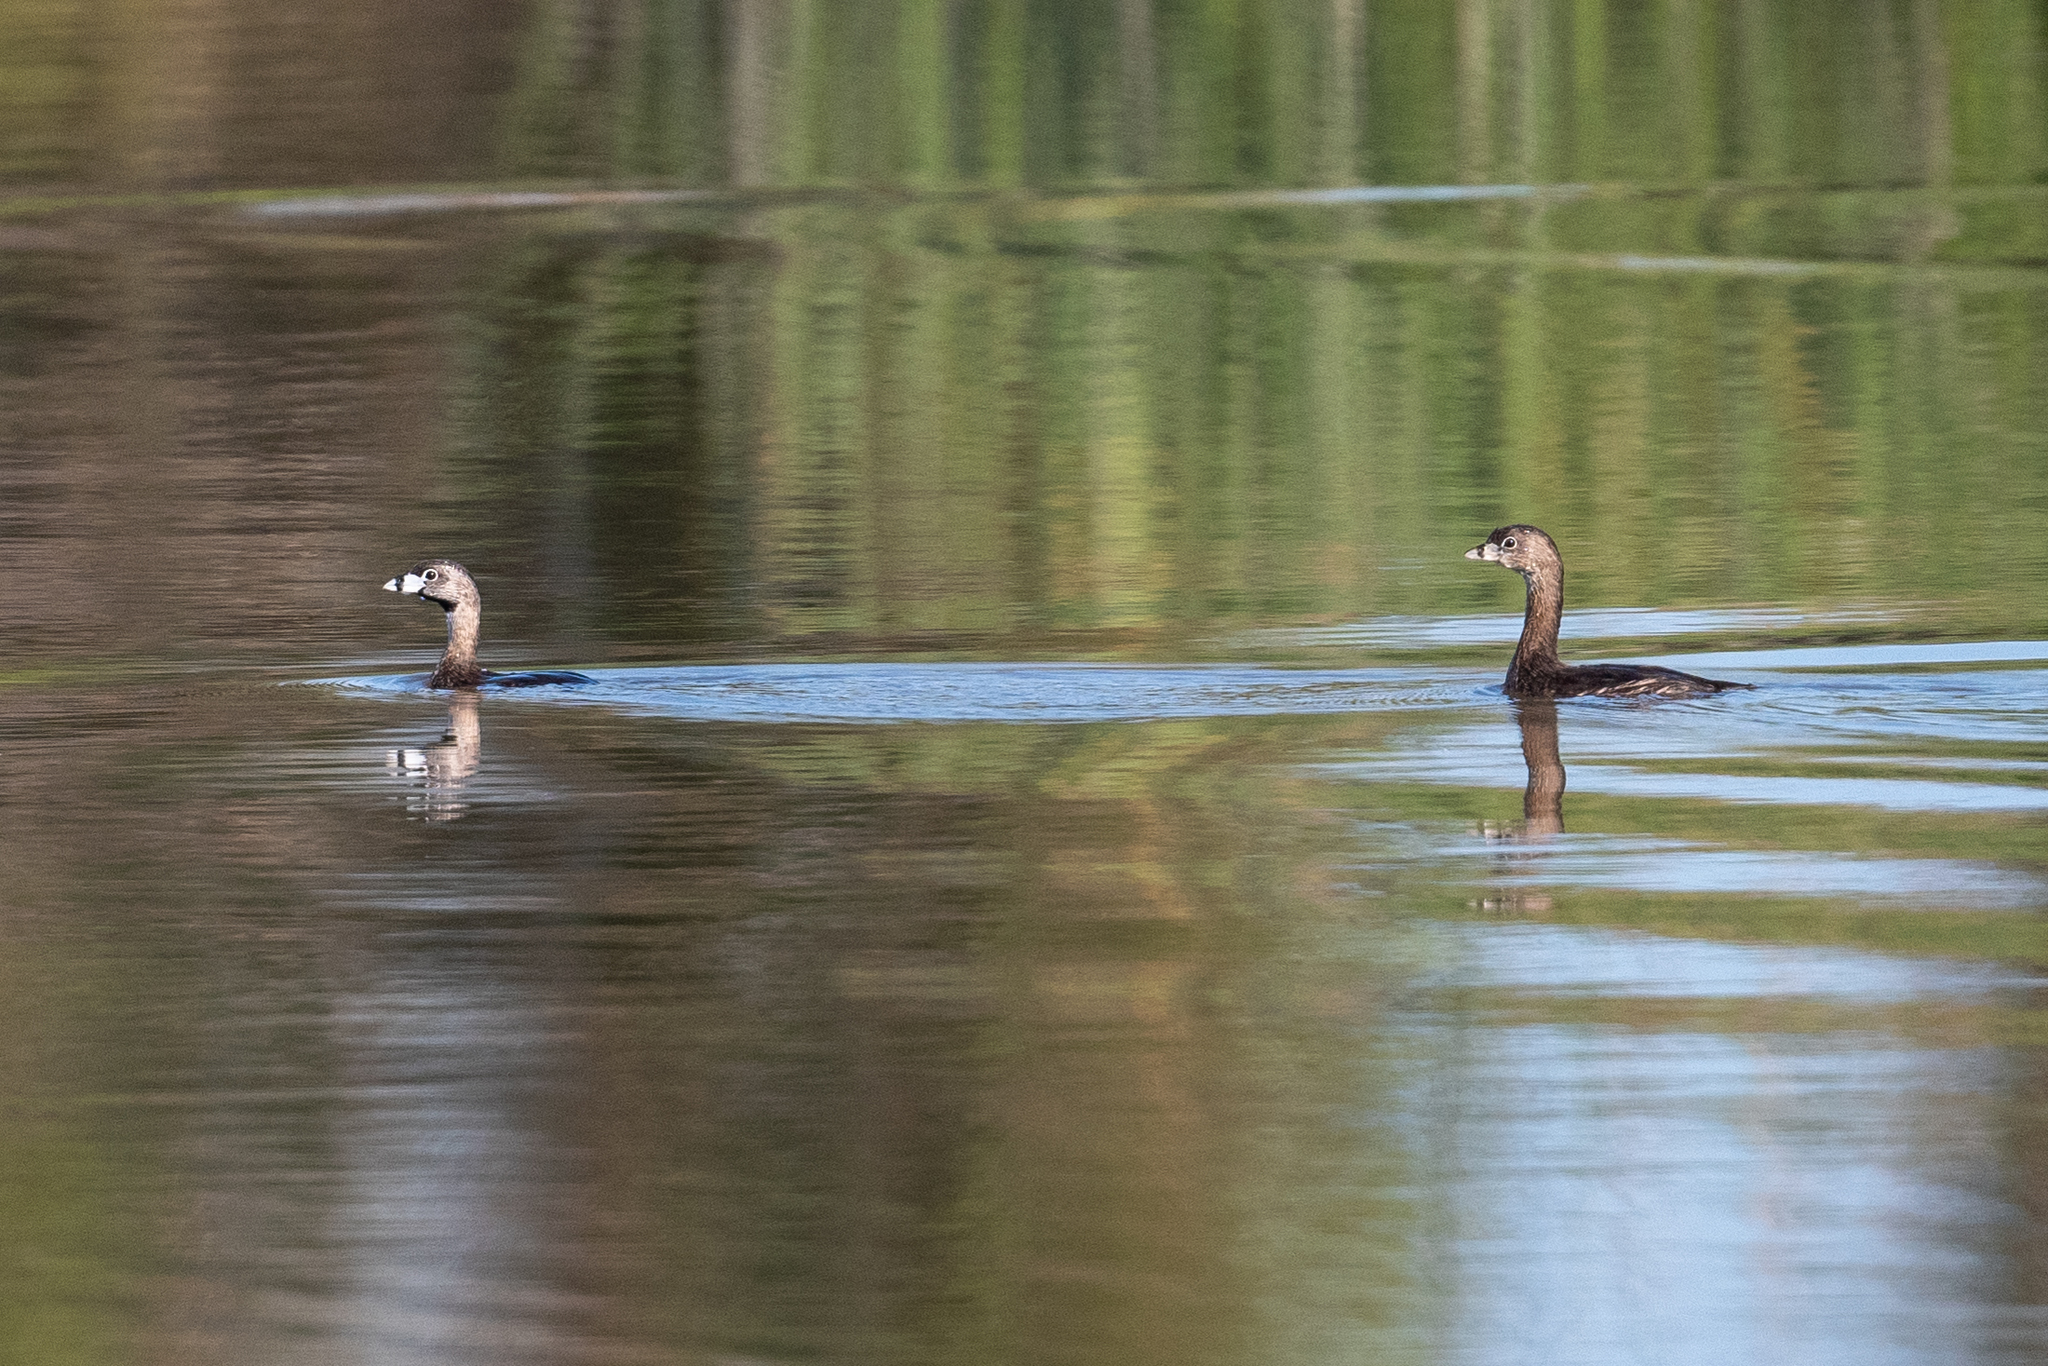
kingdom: Animalia
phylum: Chordata
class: Aves
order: Podicipediformes
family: Podicipedidae
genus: Podilymbus
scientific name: Podilymbus podiceps
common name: Pied-billed grebe
